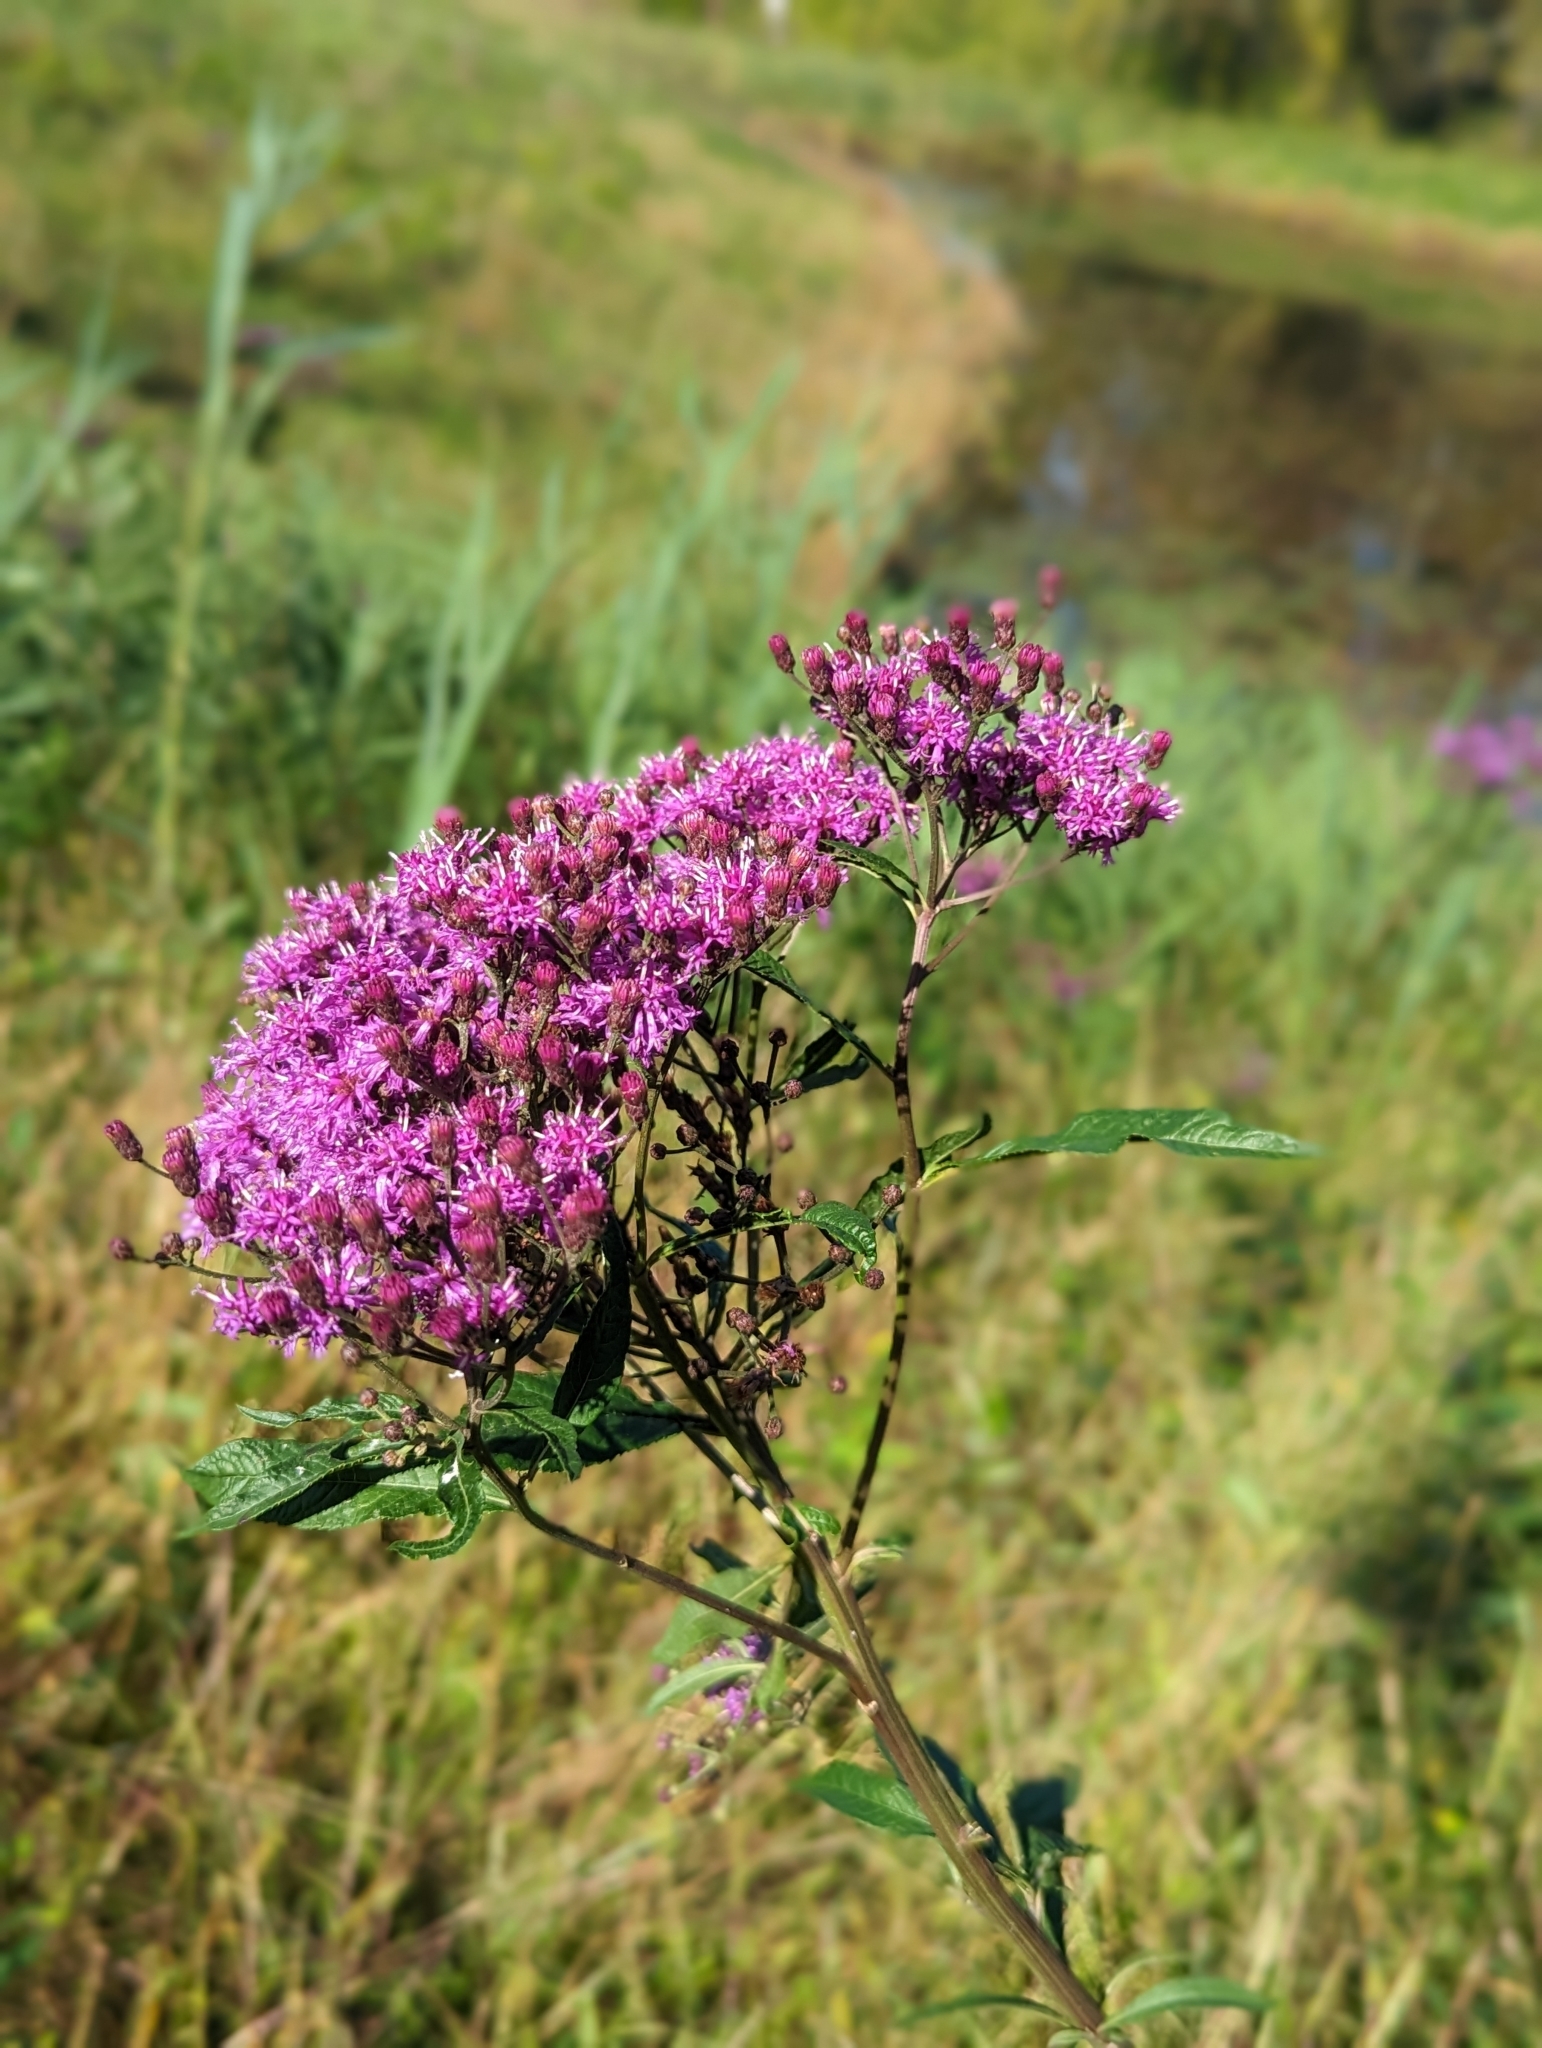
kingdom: Plantae
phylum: Tracheophyta
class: Magnoliopsida
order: Asterales
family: Asteraceae
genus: Vernonia
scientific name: Vernonia gigantea
